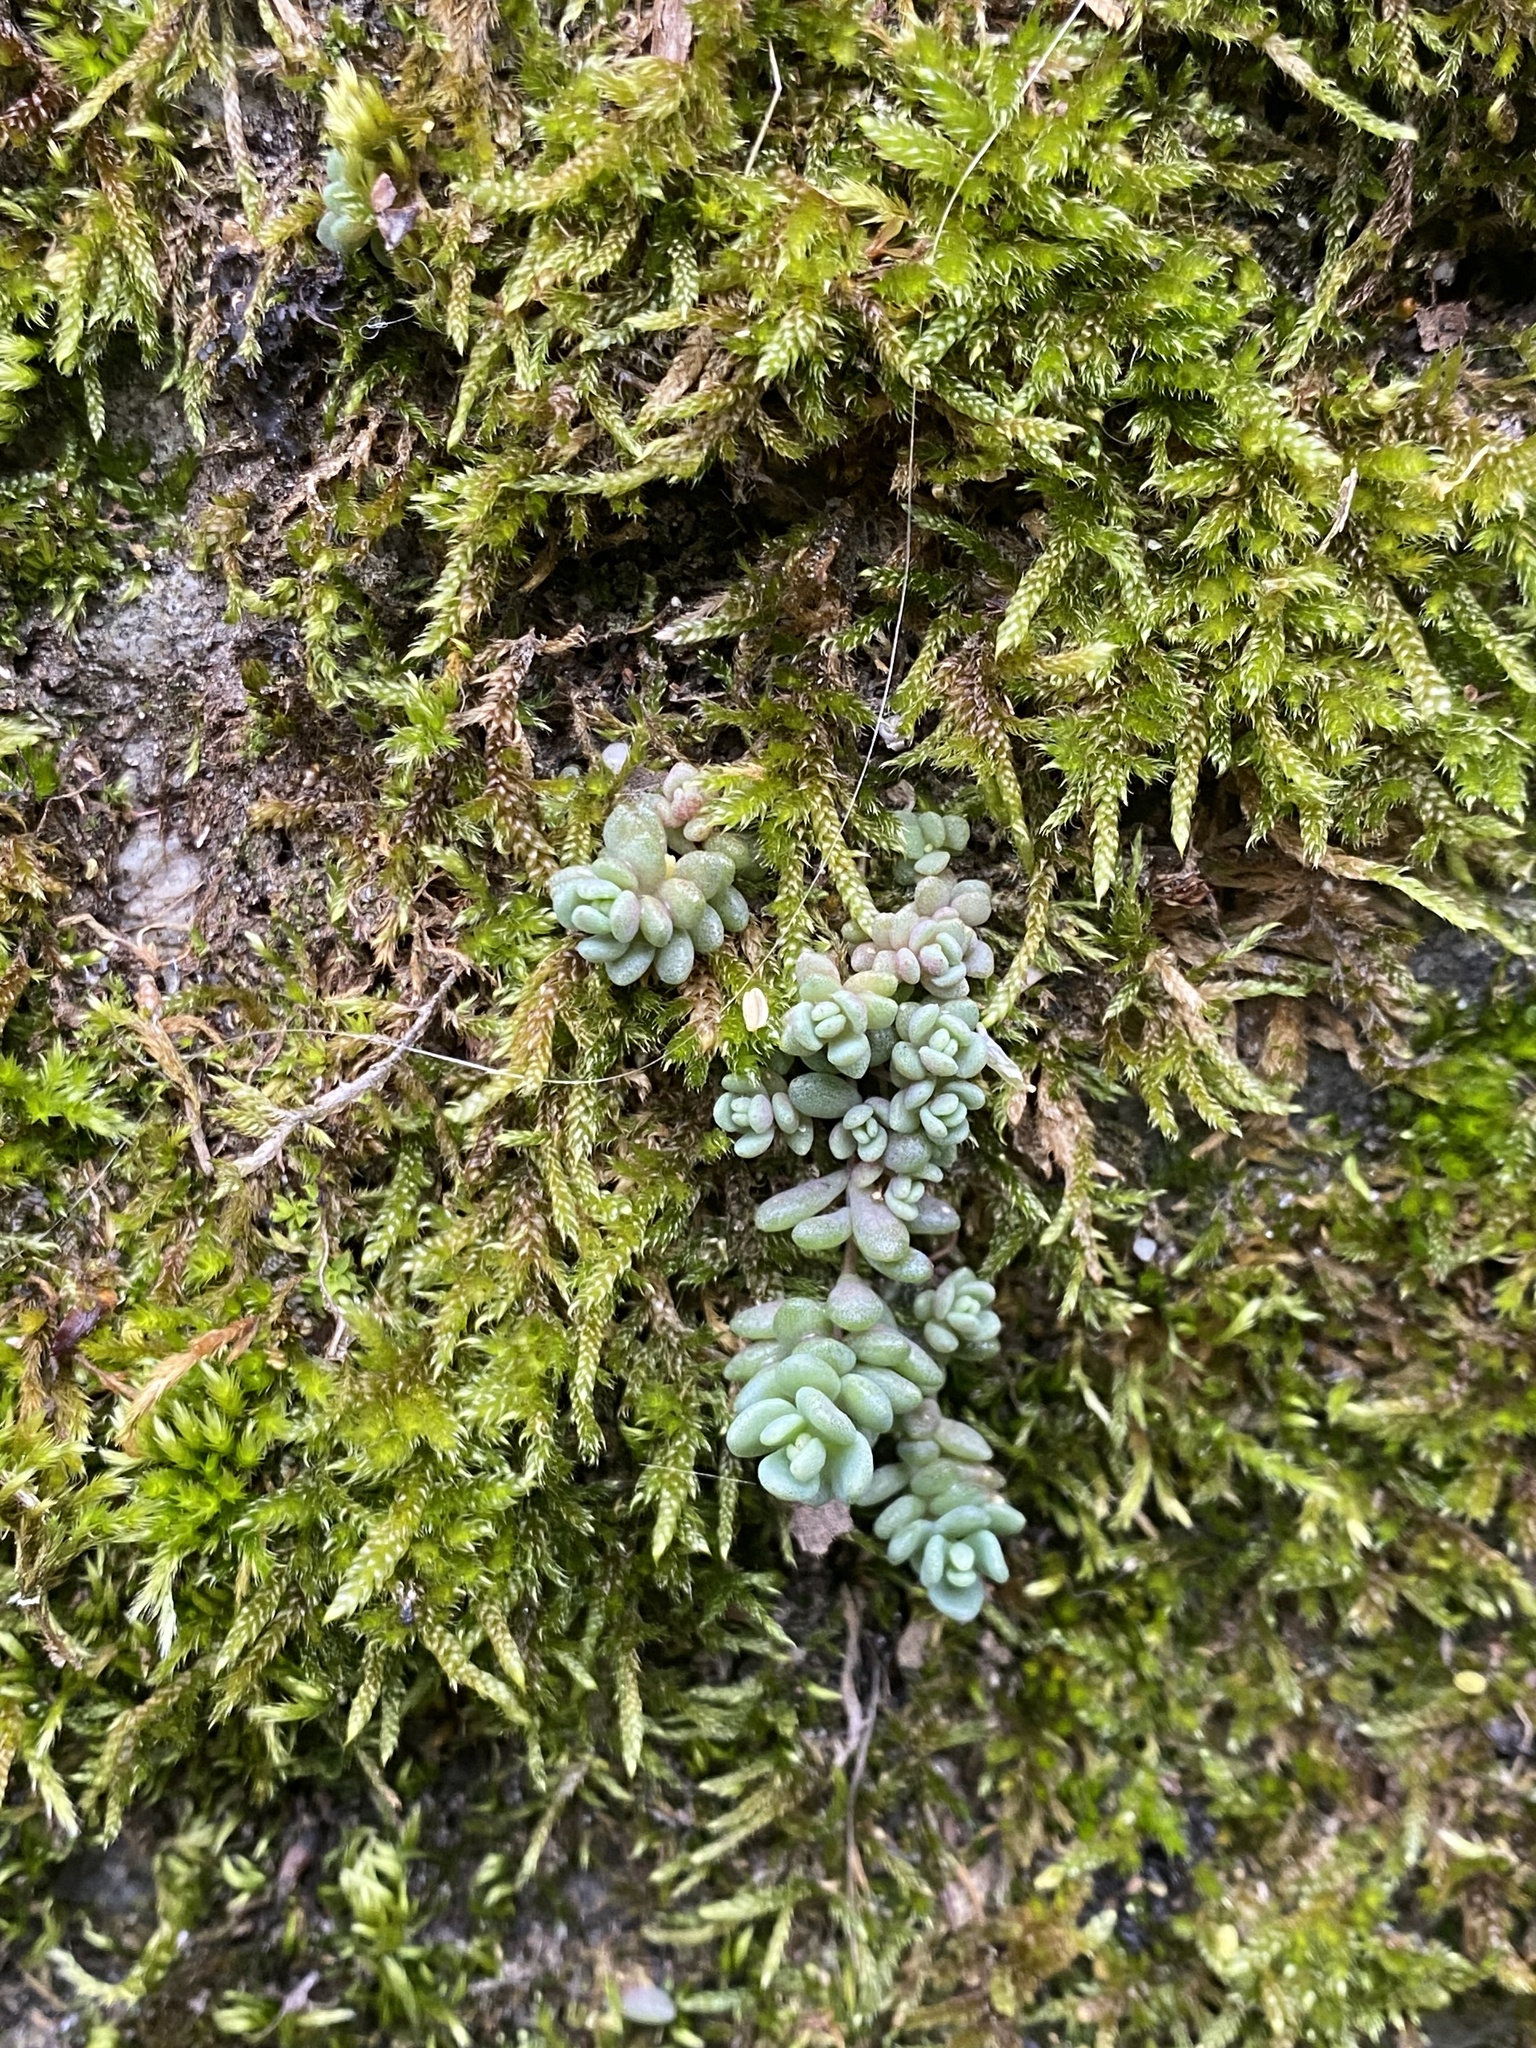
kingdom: Plantae
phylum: Tracheophyta
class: Magnoliopsida
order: Saxifragales
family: Crassulaceae
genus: Sedum
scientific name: Sedum dasyphyllum
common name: Thick-leaf stonecrop
